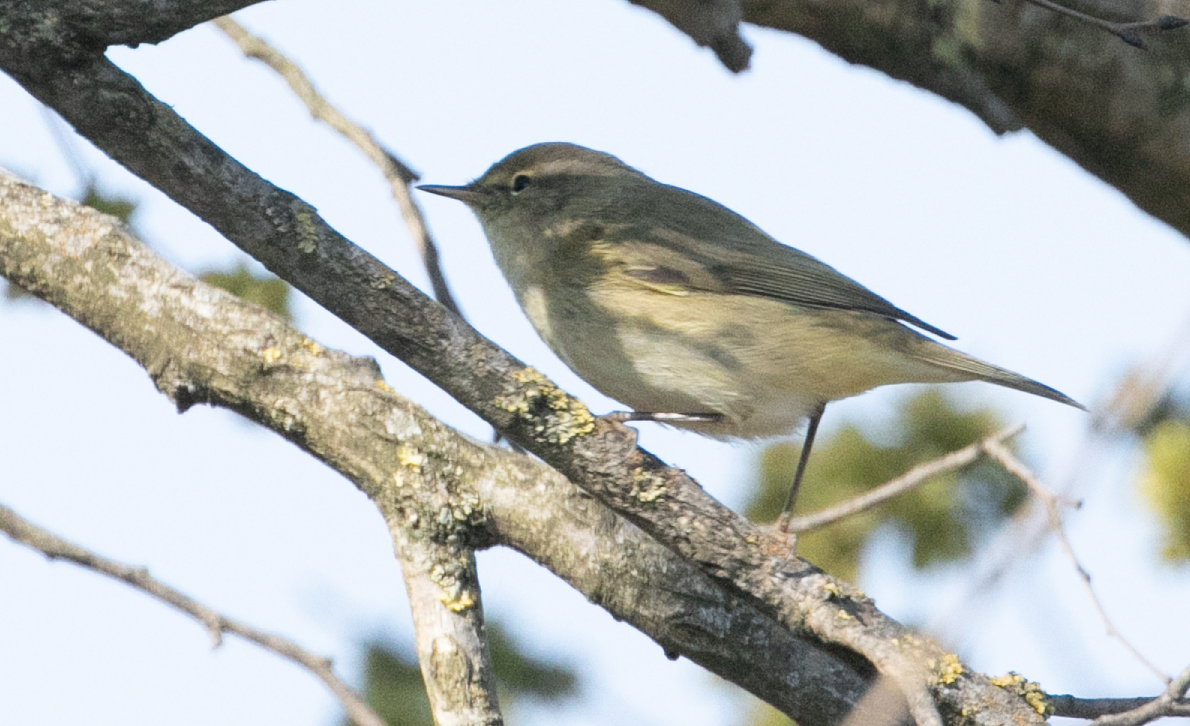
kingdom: Animalia
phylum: Chordata
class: Aves
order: Passeriformes
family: Phylloscopidae
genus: Phylloscopus
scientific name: Phylloscopus collybita
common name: Common chiffchaff
